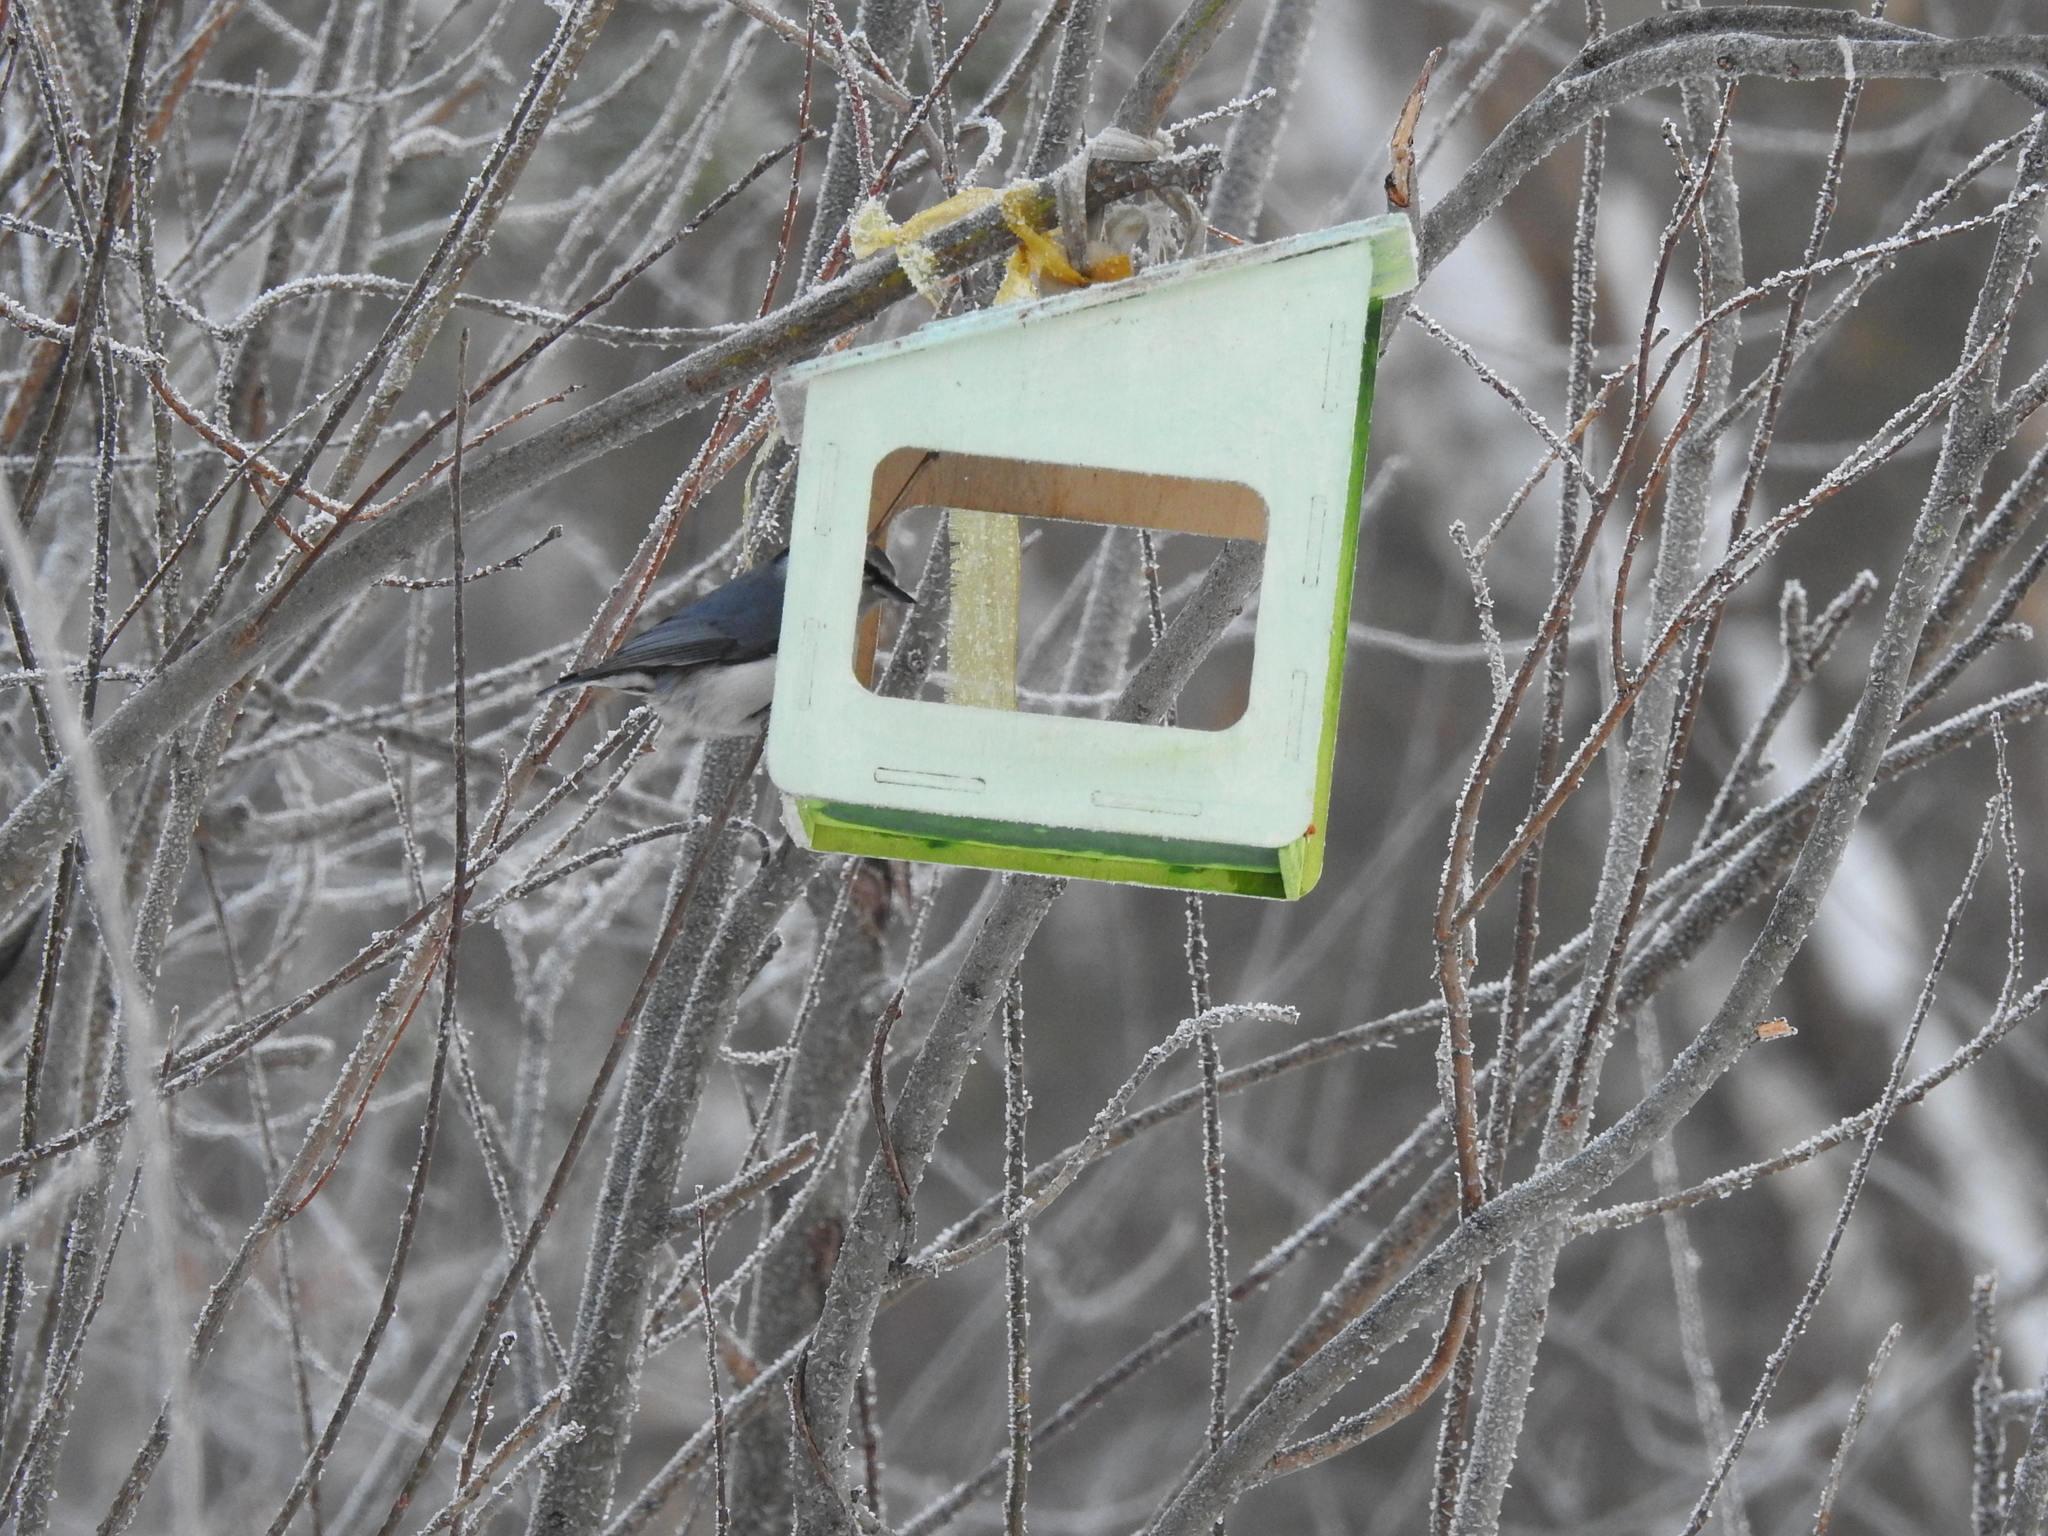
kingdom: Animalia
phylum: Chordata
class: Aves
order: Passeriformes
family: Sittidae
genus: Sitta
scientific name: Sitta europaea
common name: Eurasian nuthatch
